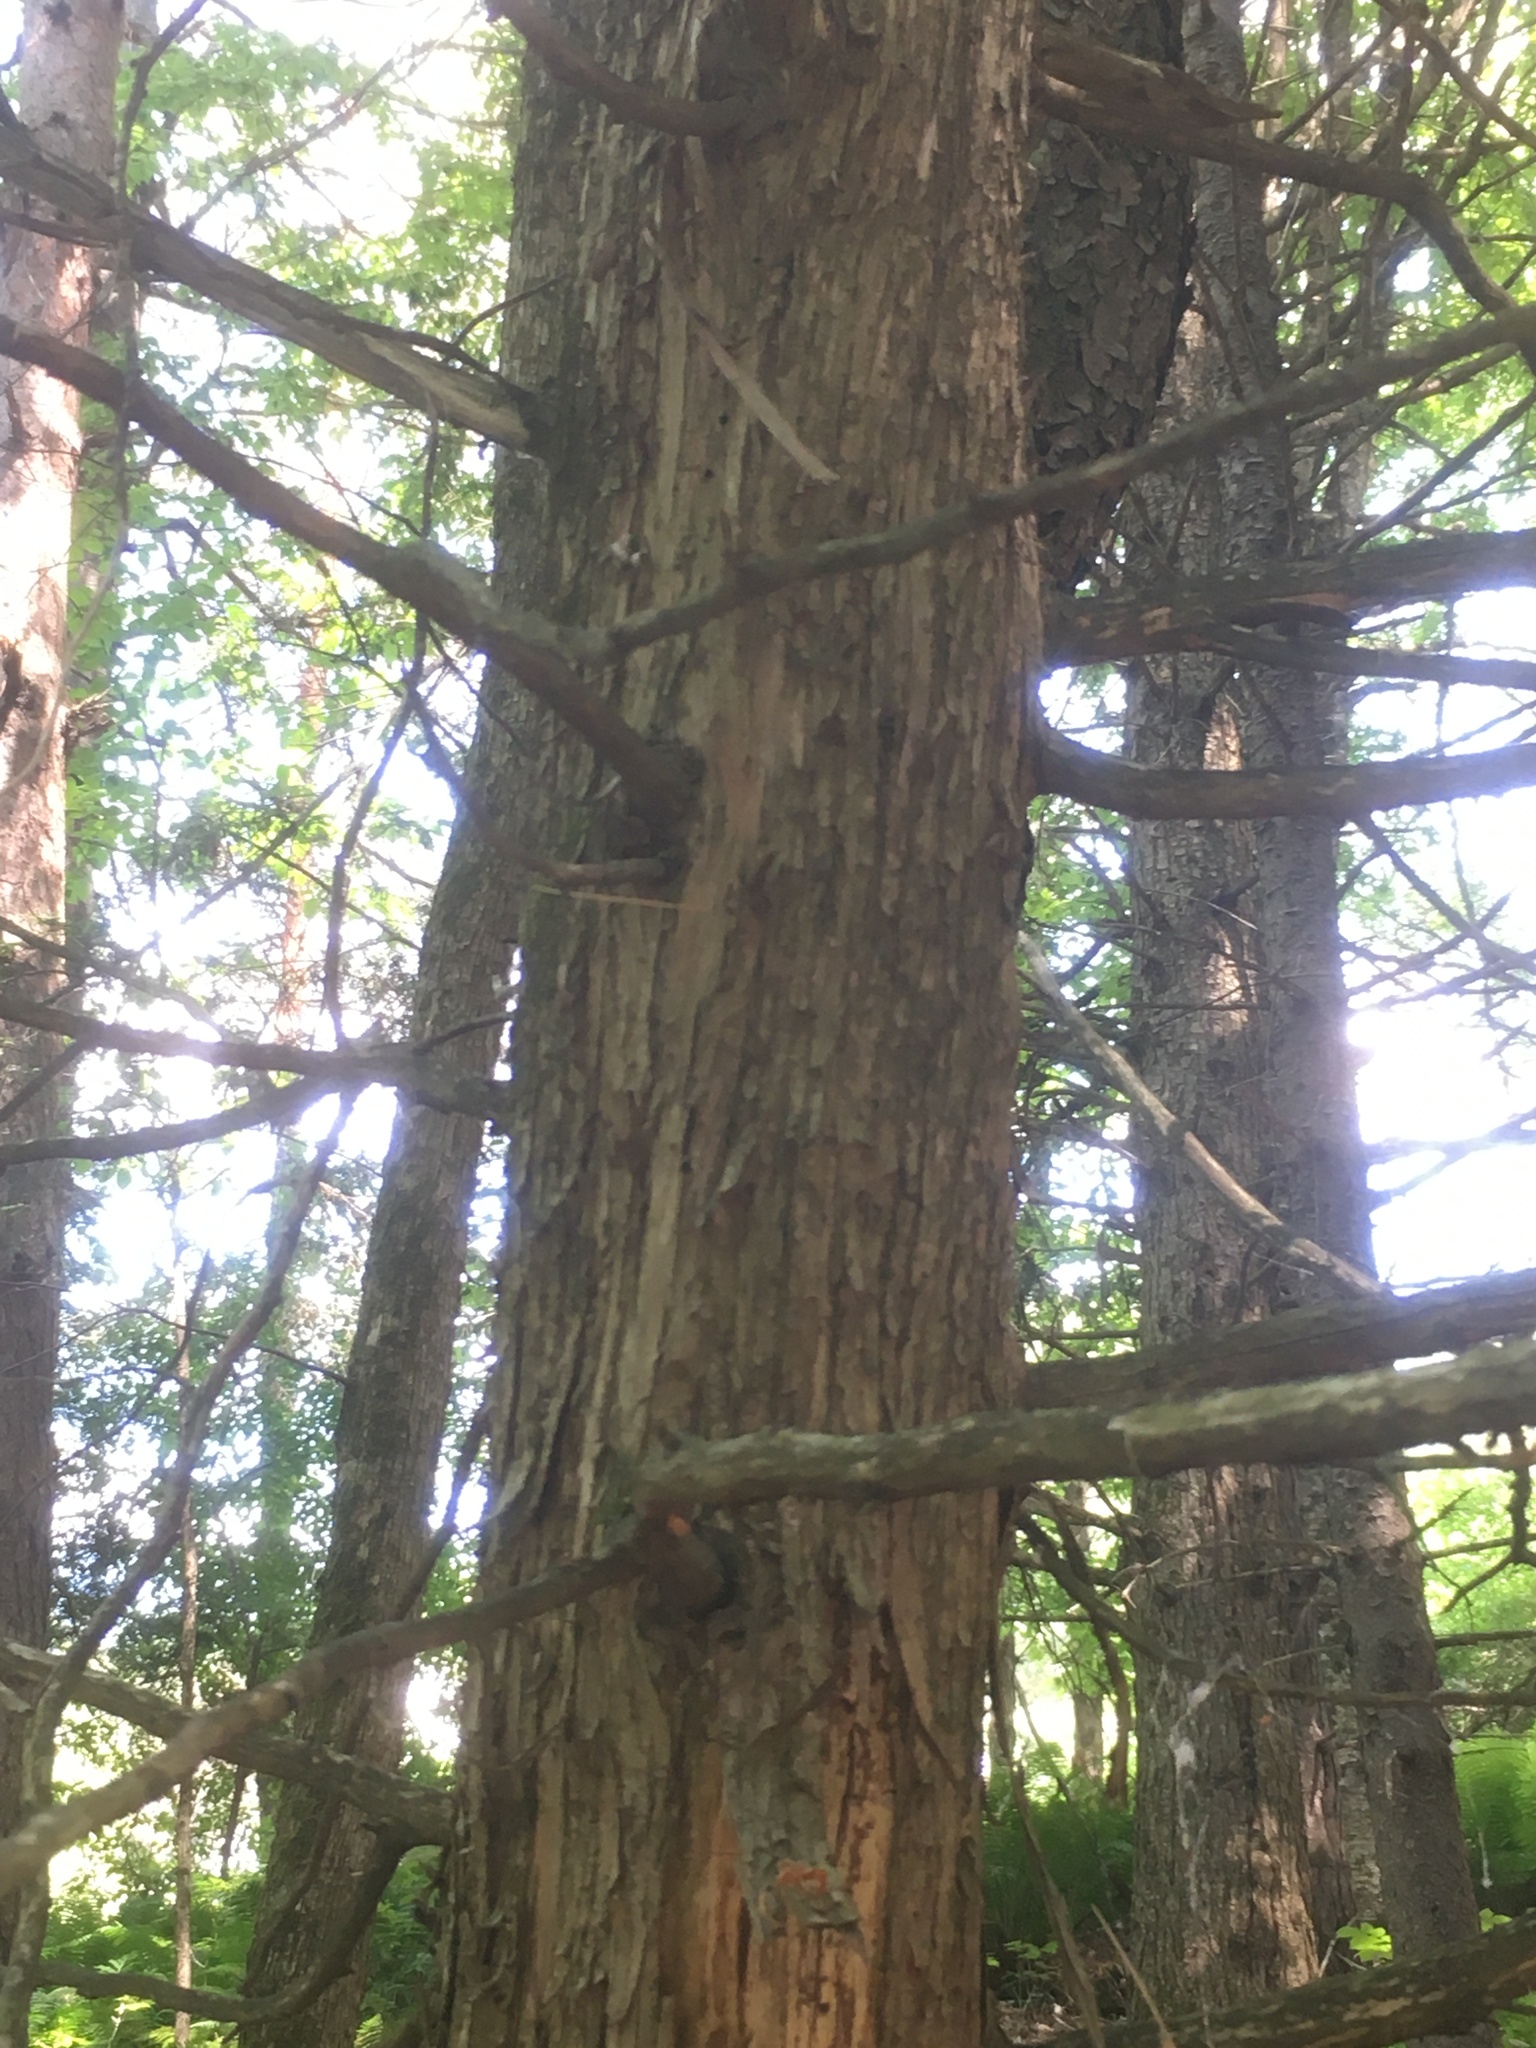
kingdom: Plantae
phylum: Tracheophyta
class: Pinopsida
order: Pinales
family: Cupressaceae
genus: Thuja
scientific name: Thuja occidentalis
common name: Northern white-cedar
